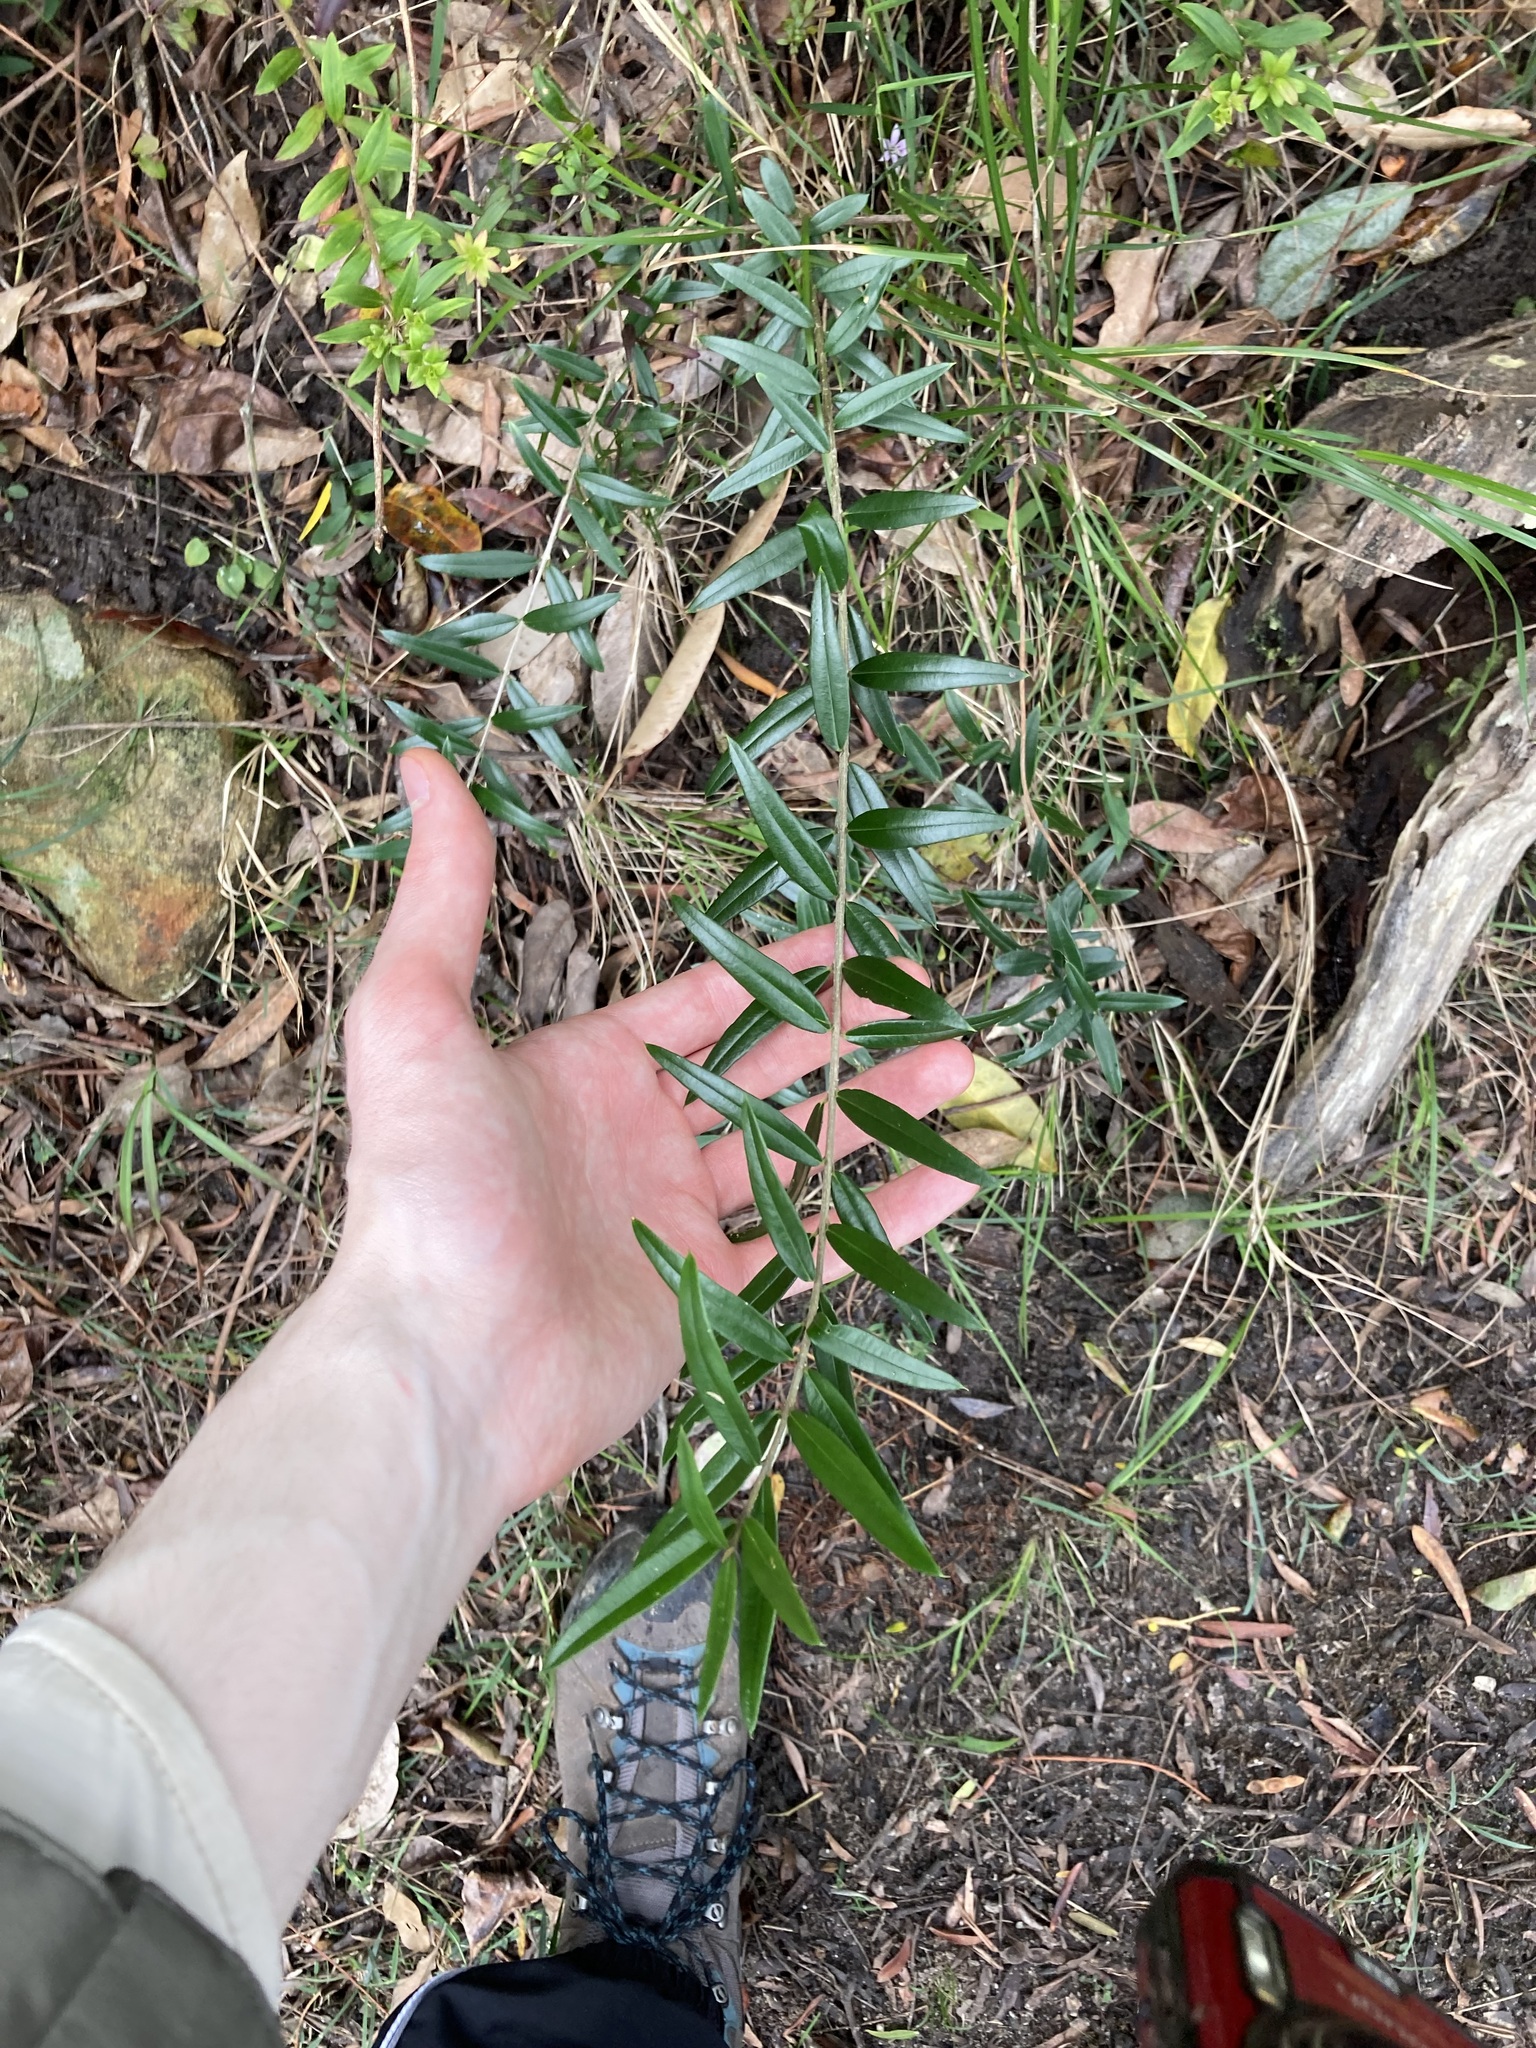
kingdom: Plantae
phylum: Tracheophyta
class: Magnoliopsida
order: Lamiales
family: Oleaceae
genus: Olea
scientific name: Olea europaea
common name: Olive
